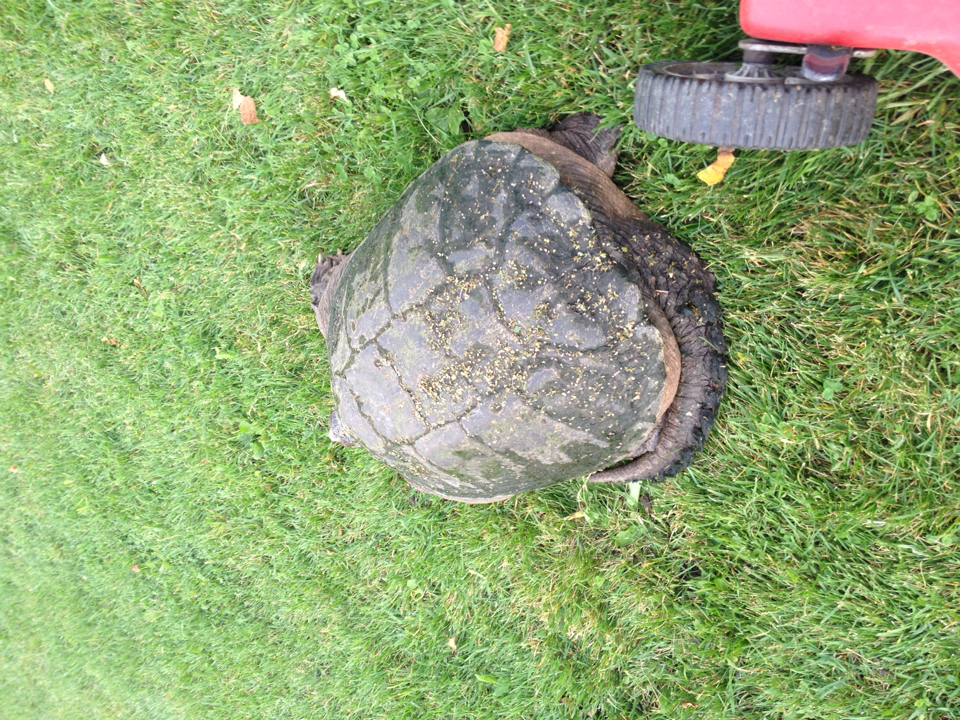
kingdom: Animalia
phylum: Chordata
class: Testudines
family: Chelydridae
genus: Chelydra
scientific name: Chelydra serpentina
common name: Common snapping turtle
